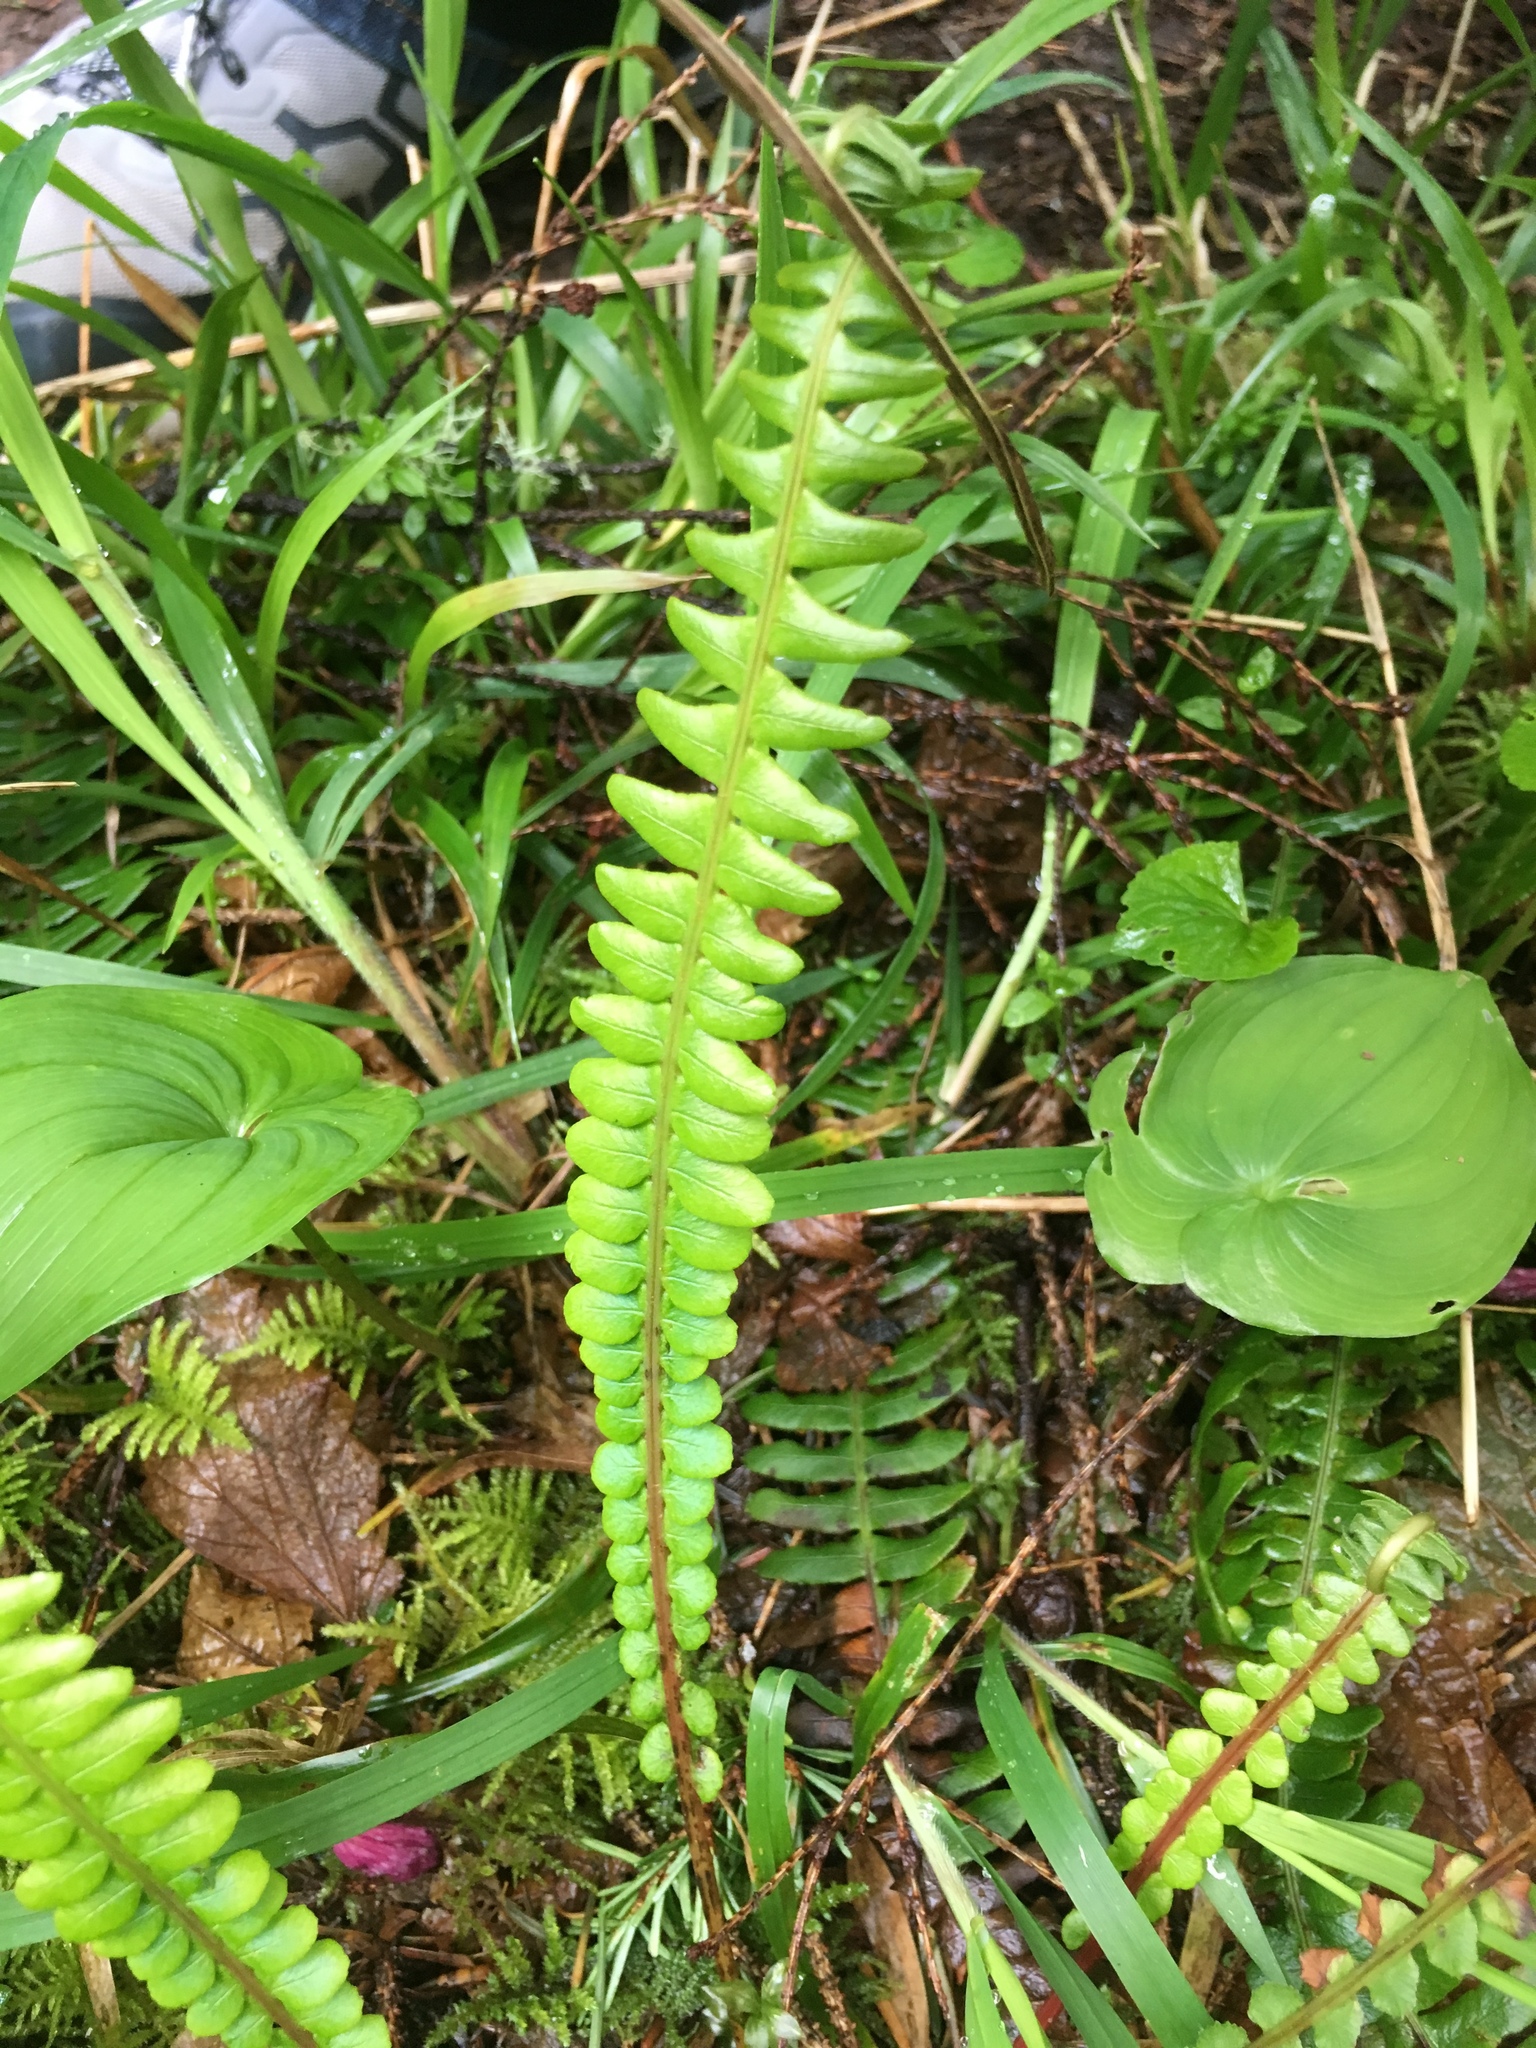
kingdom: Plantae
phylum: Tracheophyta
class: Polypodiopsida
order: Polypodiales
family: Blechnaceae
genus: Struthiopteris
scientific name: Struthiopteris spicant
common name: Deer fern
